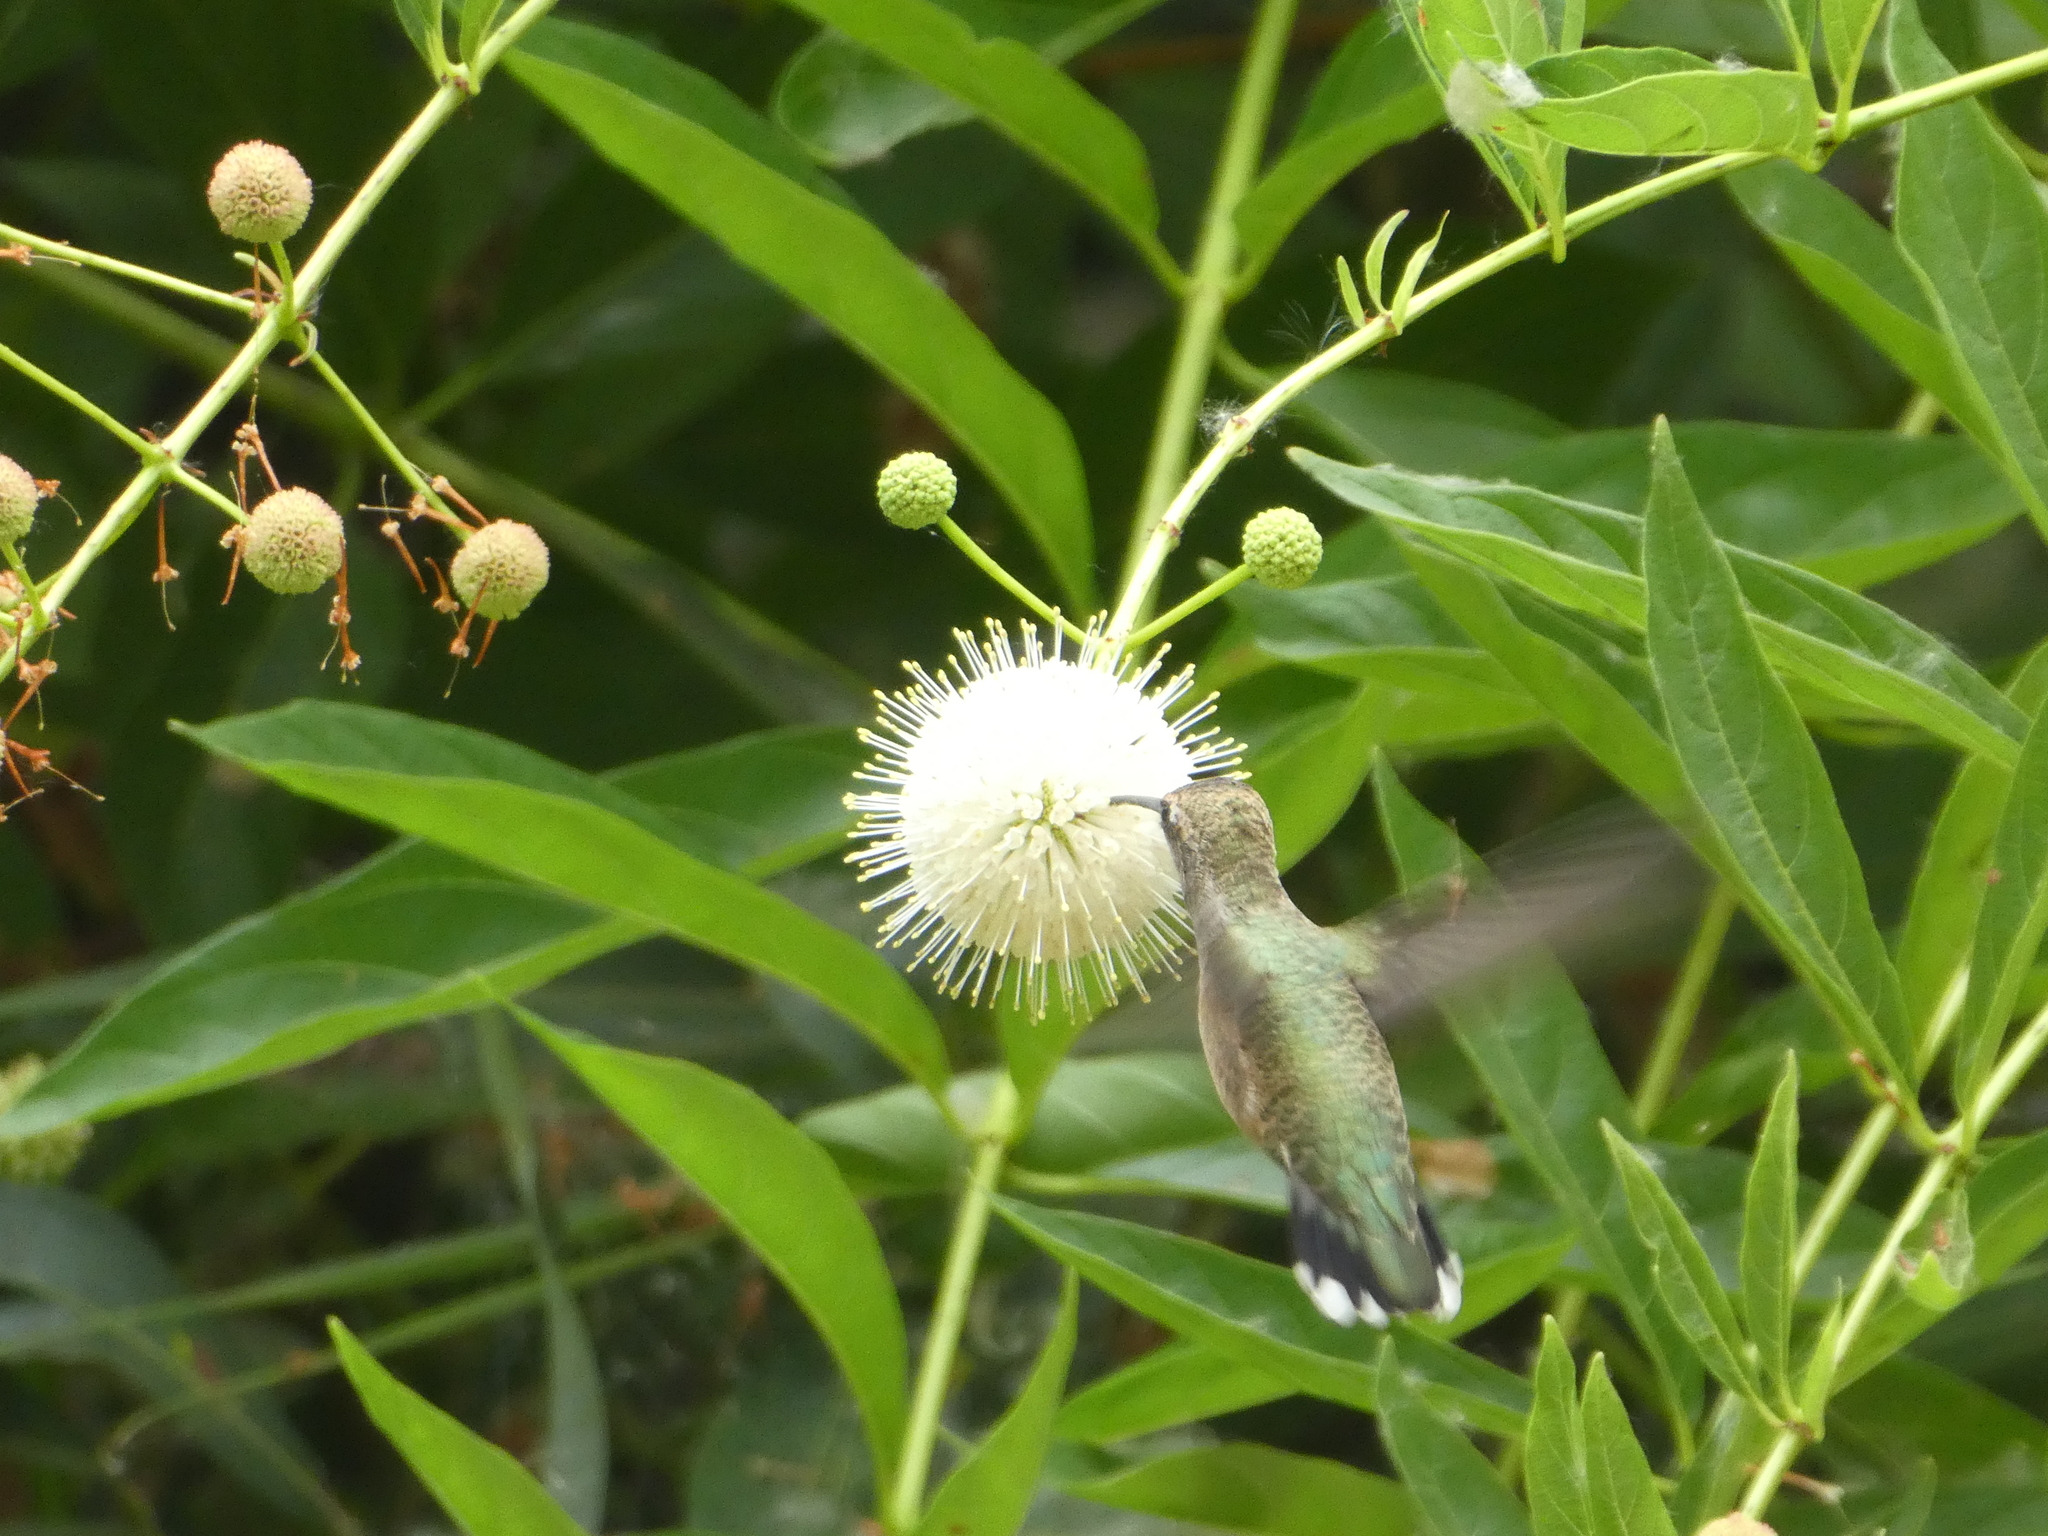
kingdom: Animalia
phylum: Chordata
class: Aves
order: Apodiformes
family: Trochilidae
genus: Archilochus
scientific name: Archilochus alexandri
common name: Black-chinned hummingbird
